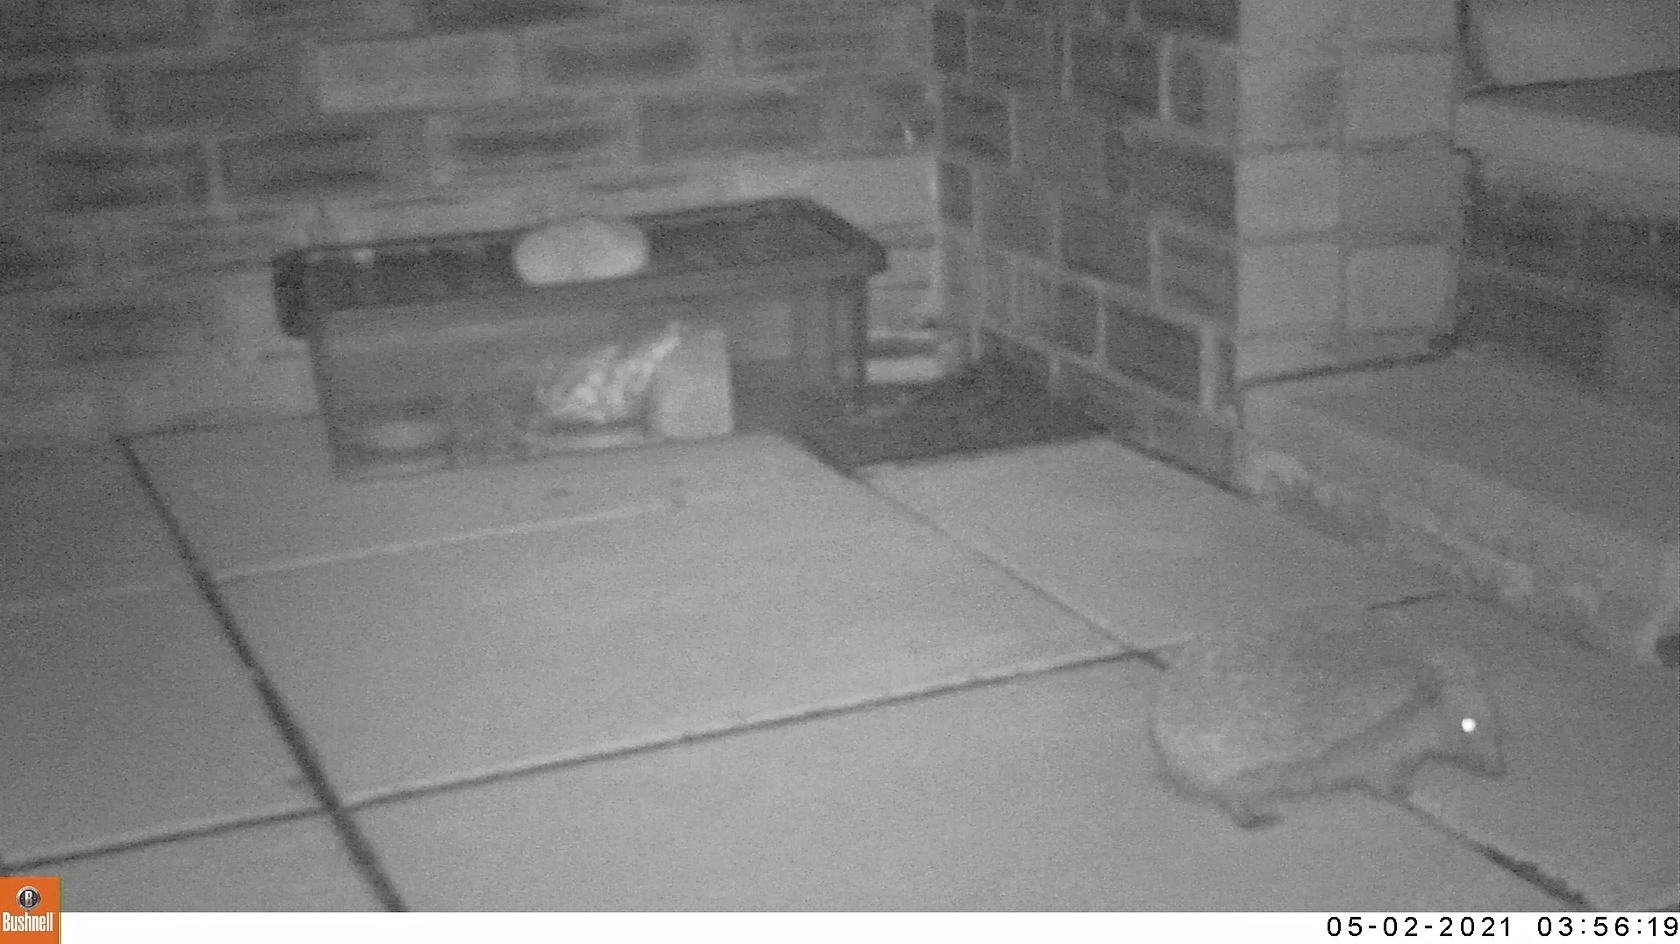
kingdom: Animalia
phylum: Chordata
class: Mammalia
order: Erinaceomorpha
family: Erinaceidae
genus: Erinaceus
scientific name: Erinaceus europaeus
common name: West european hedgehog
